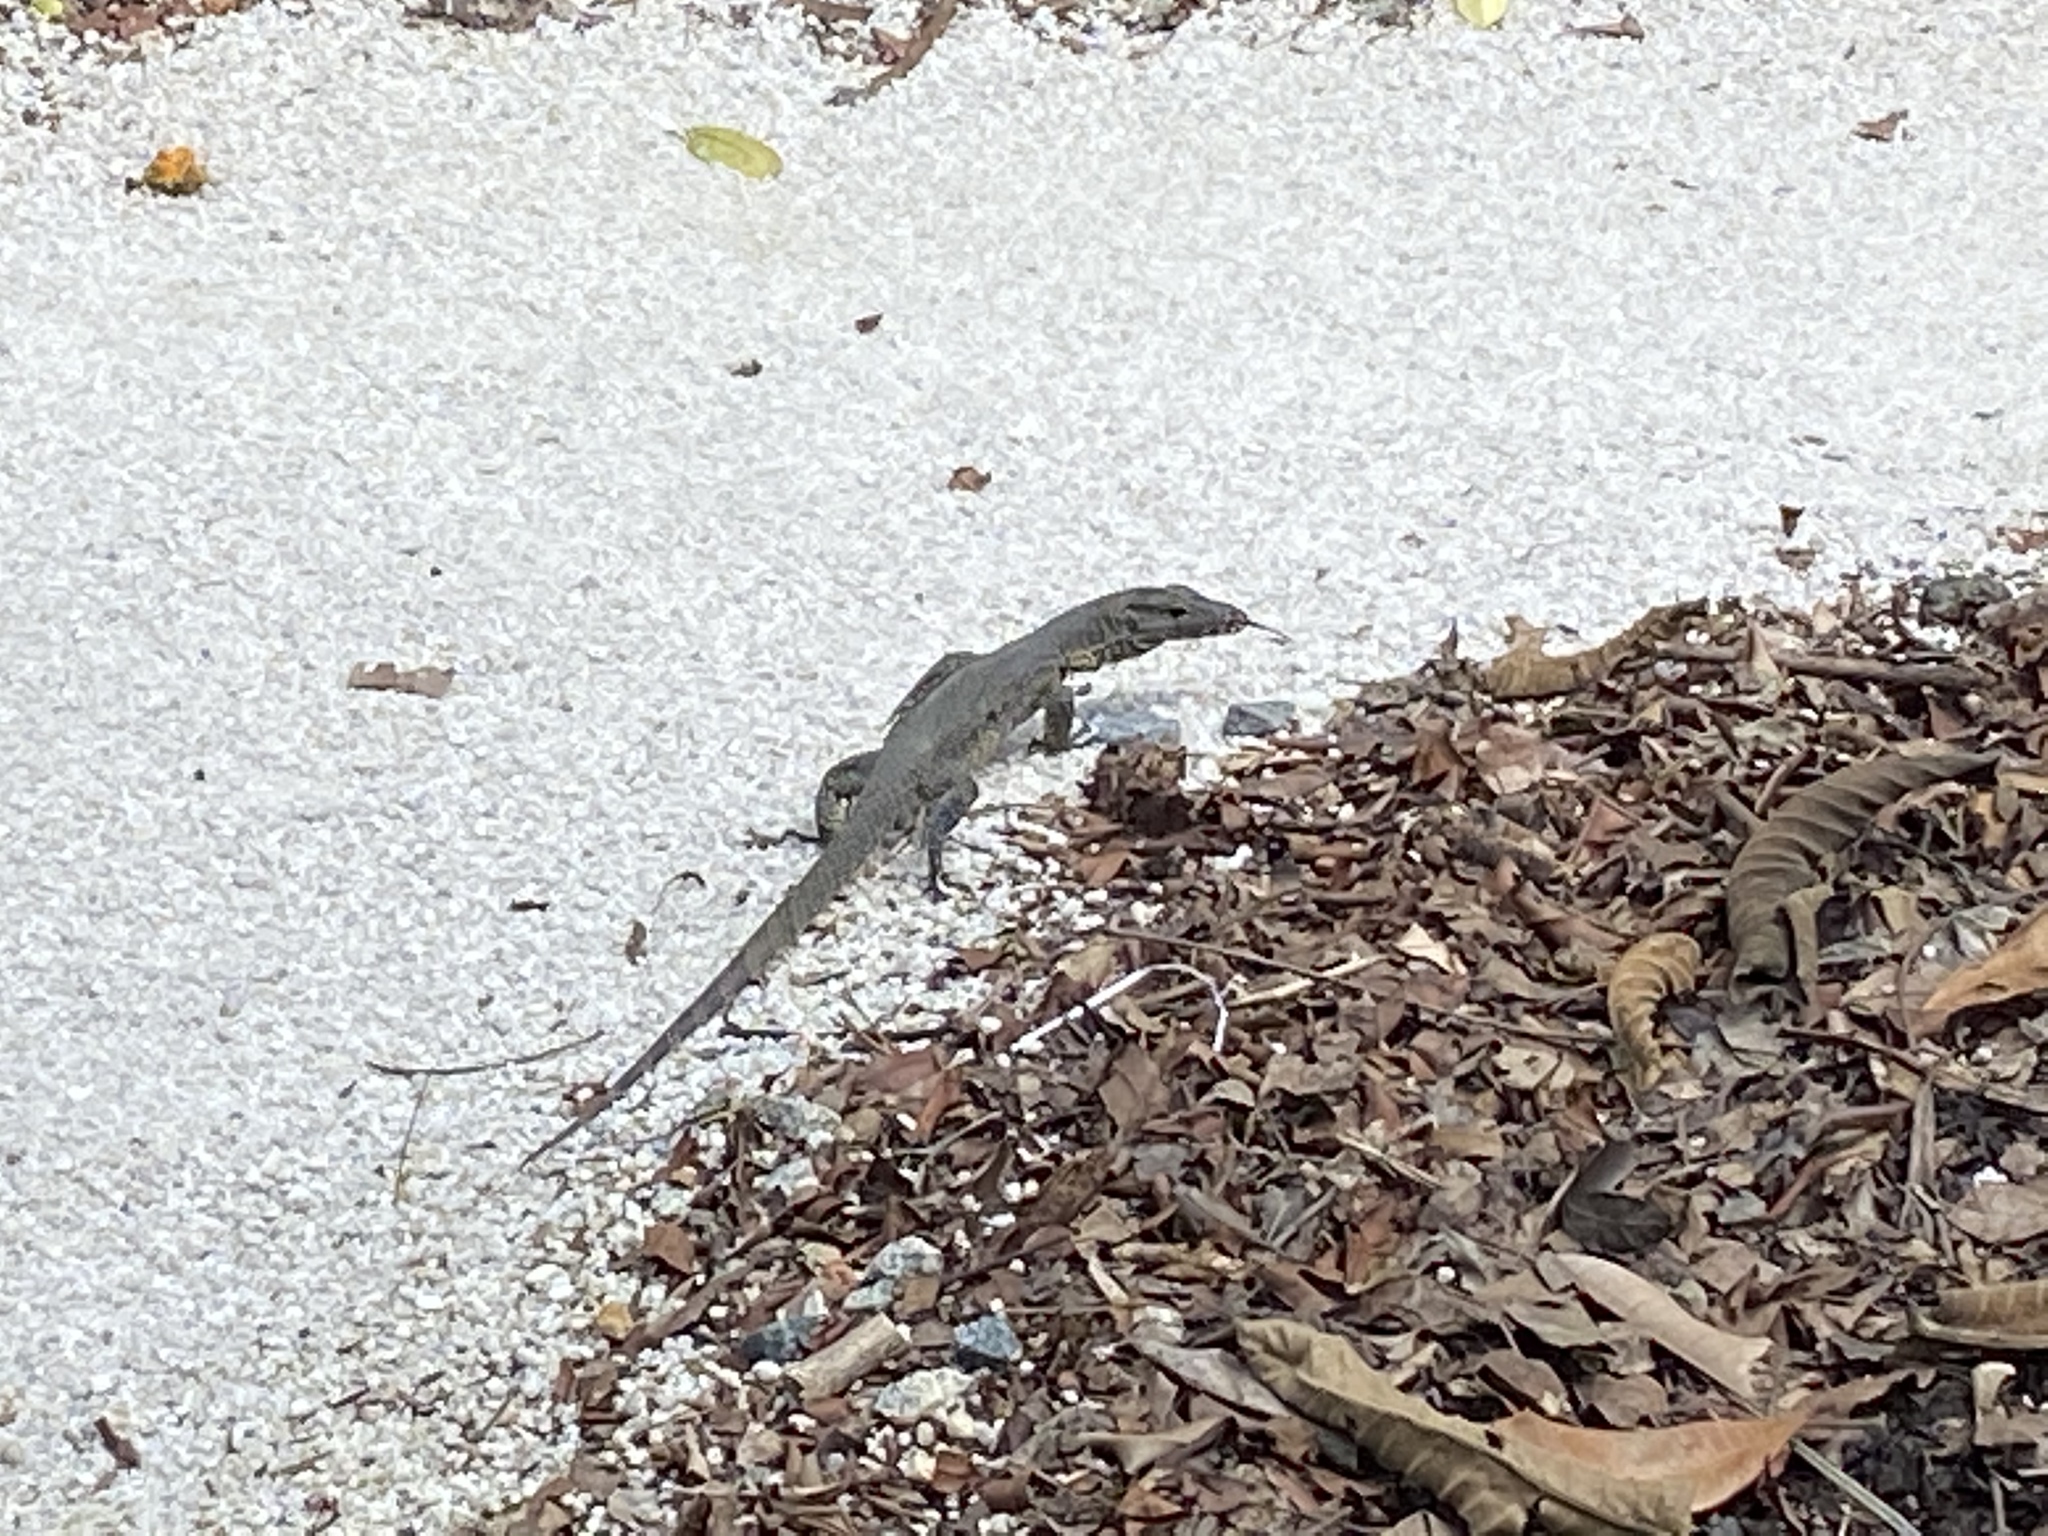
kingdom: Animalia
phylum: Chordata
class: Squamata
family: Varanidae
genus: Varanus
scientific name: Varanus salvator
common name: Common water monitor
